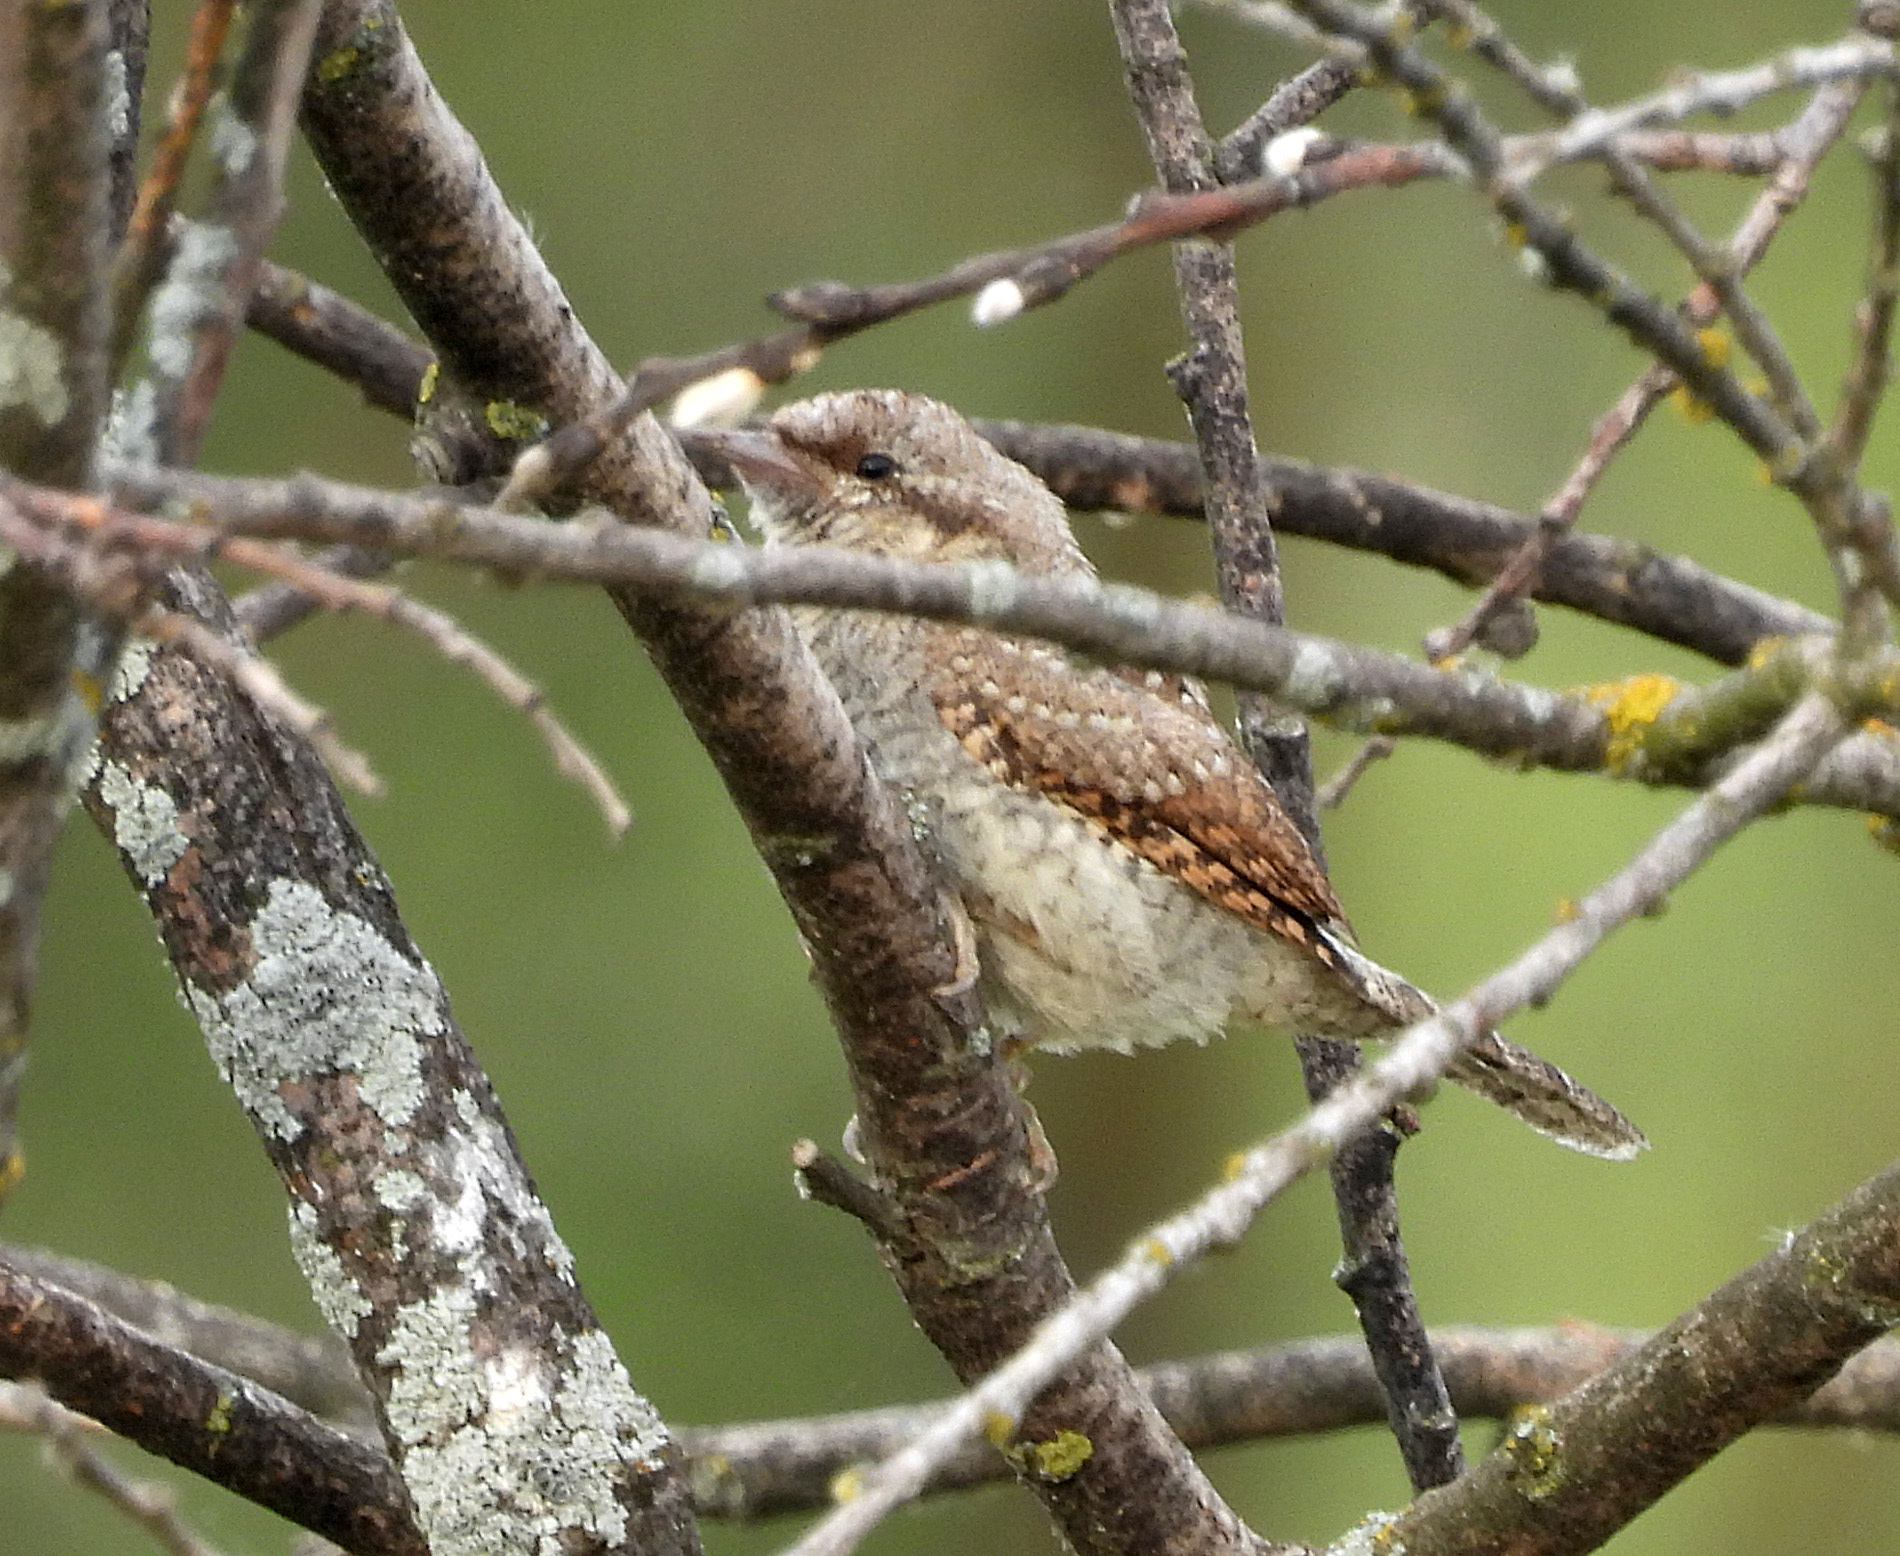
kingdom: Animalia
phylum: Chordata
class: Aves
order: Piciformes
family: Picidae
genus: Jynx
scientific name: Jynx torquilla
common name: Eurasian wryneck
